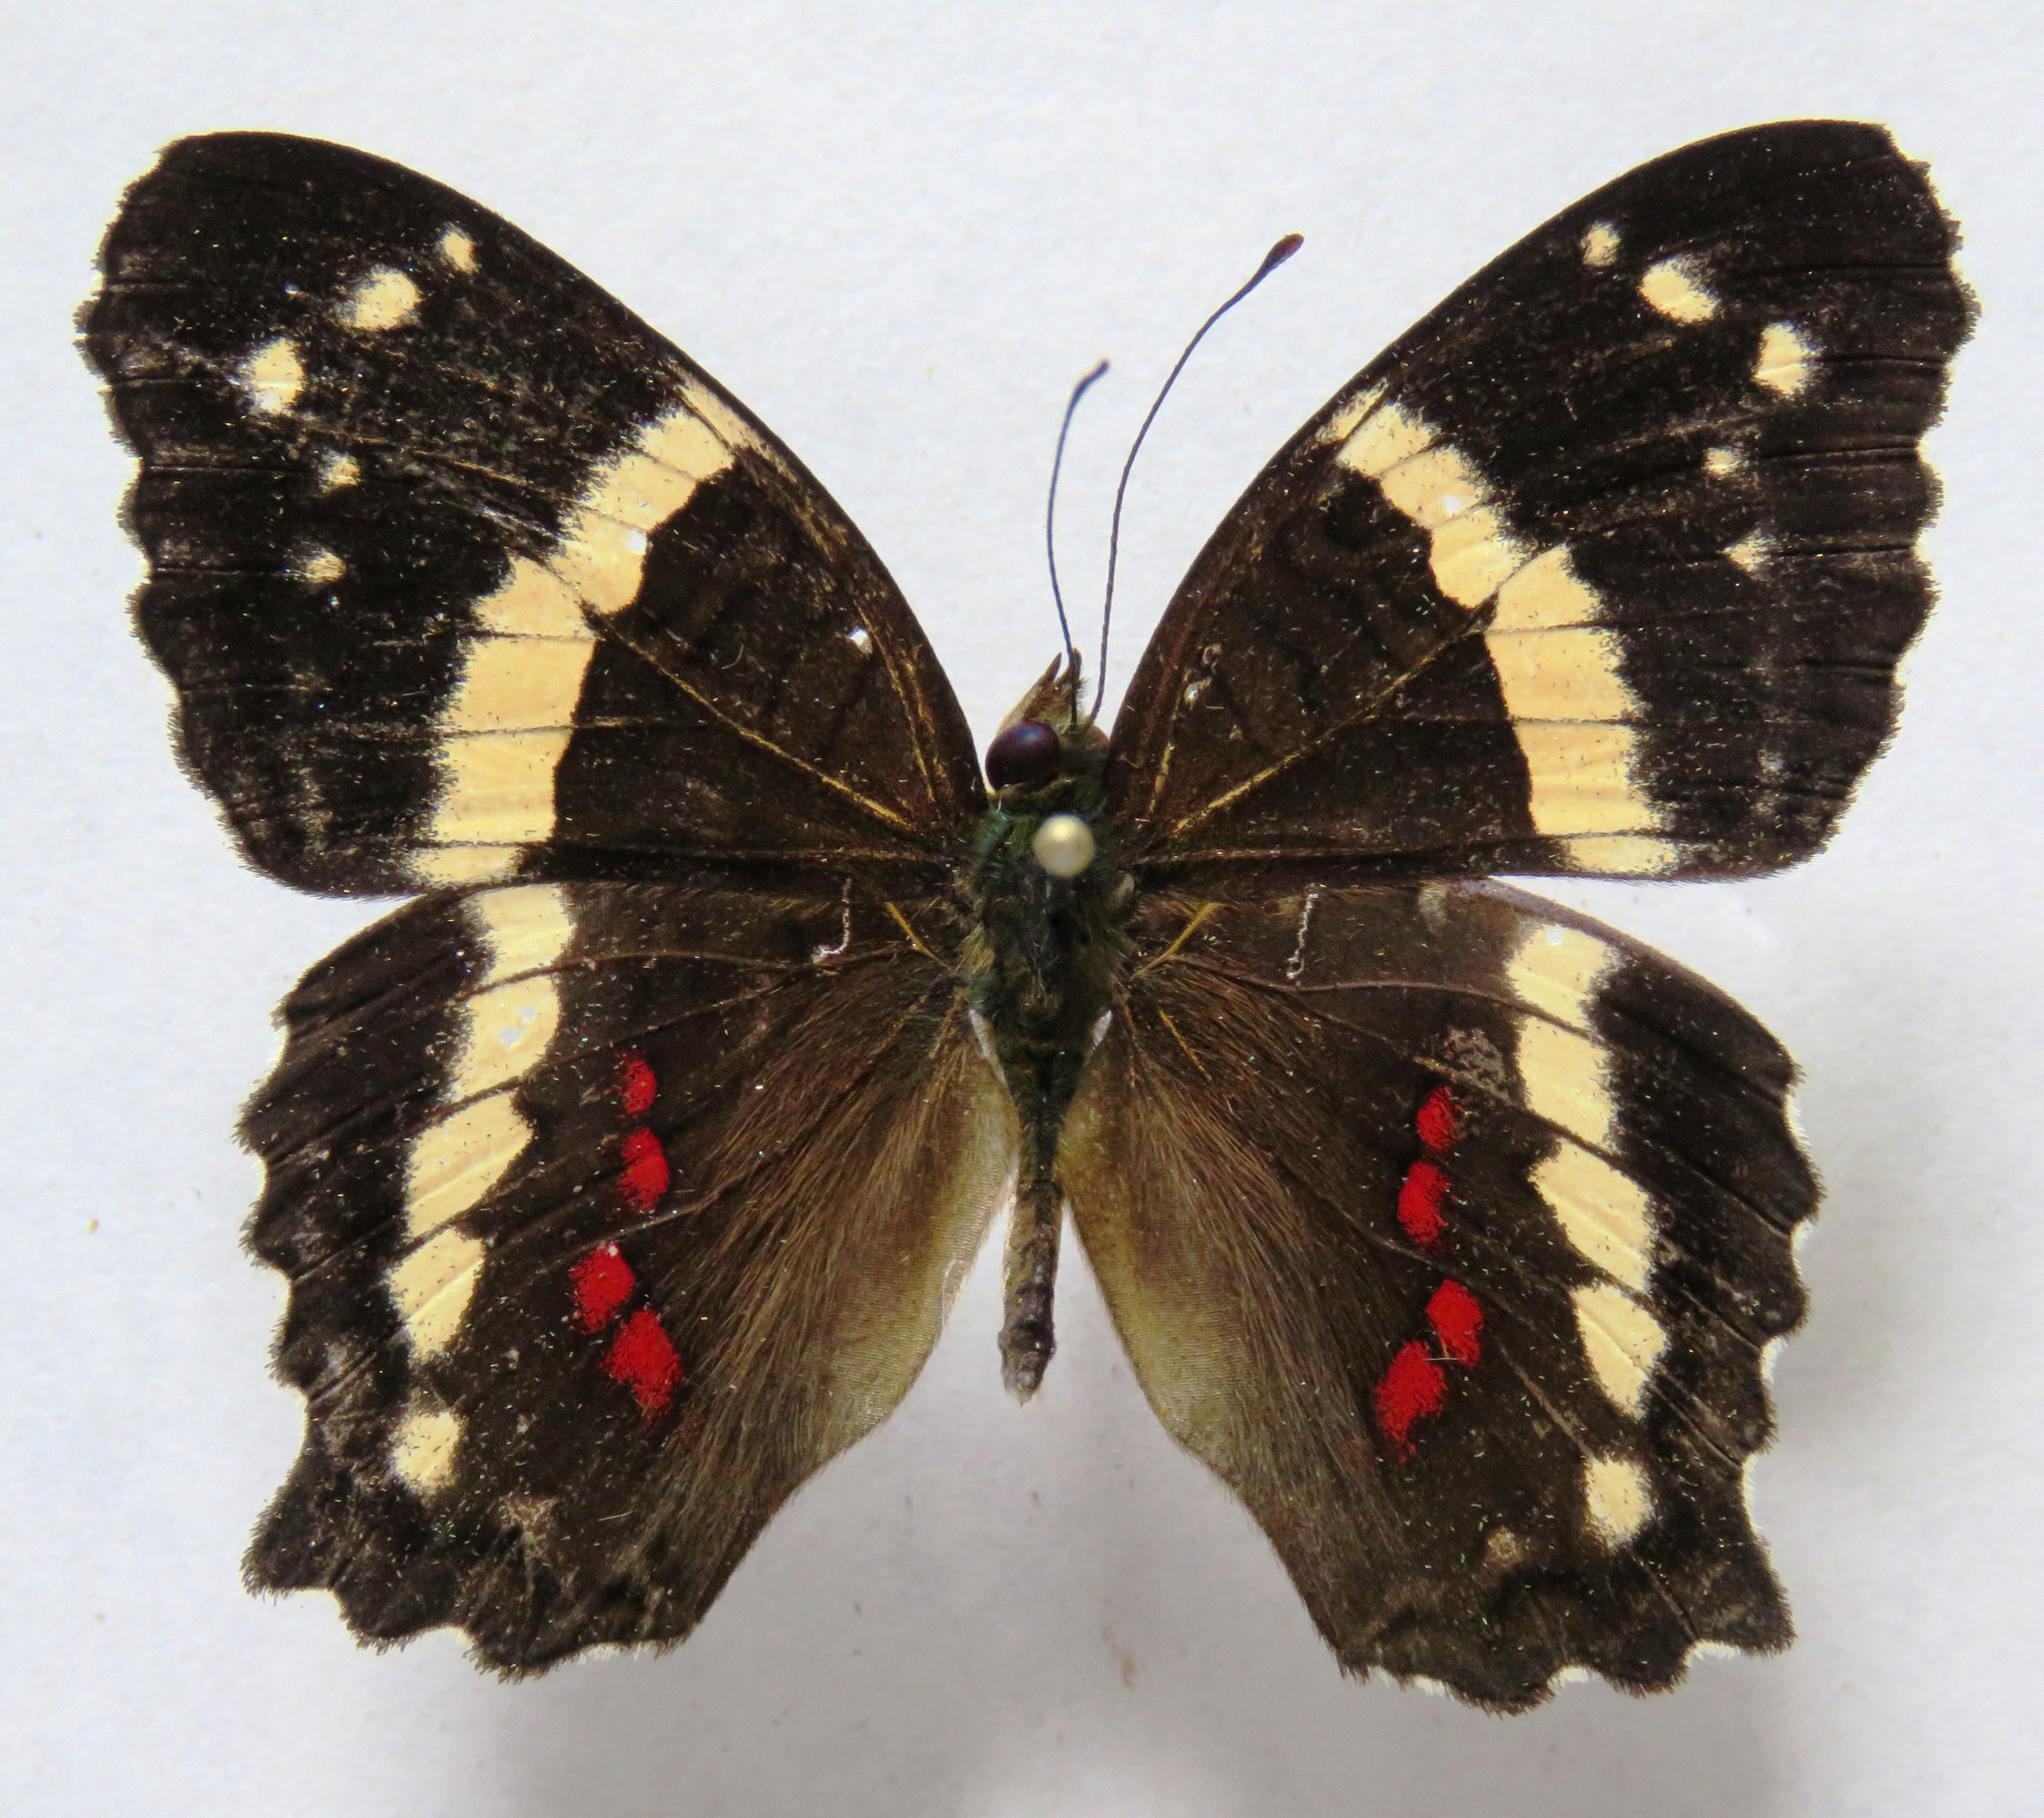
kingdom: Animalia
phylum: Arthropoda
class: Insecta
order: Lepidoptera
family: Nymphalidae
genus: Anartia
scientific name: Anartia fatima
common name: Banded peacock
